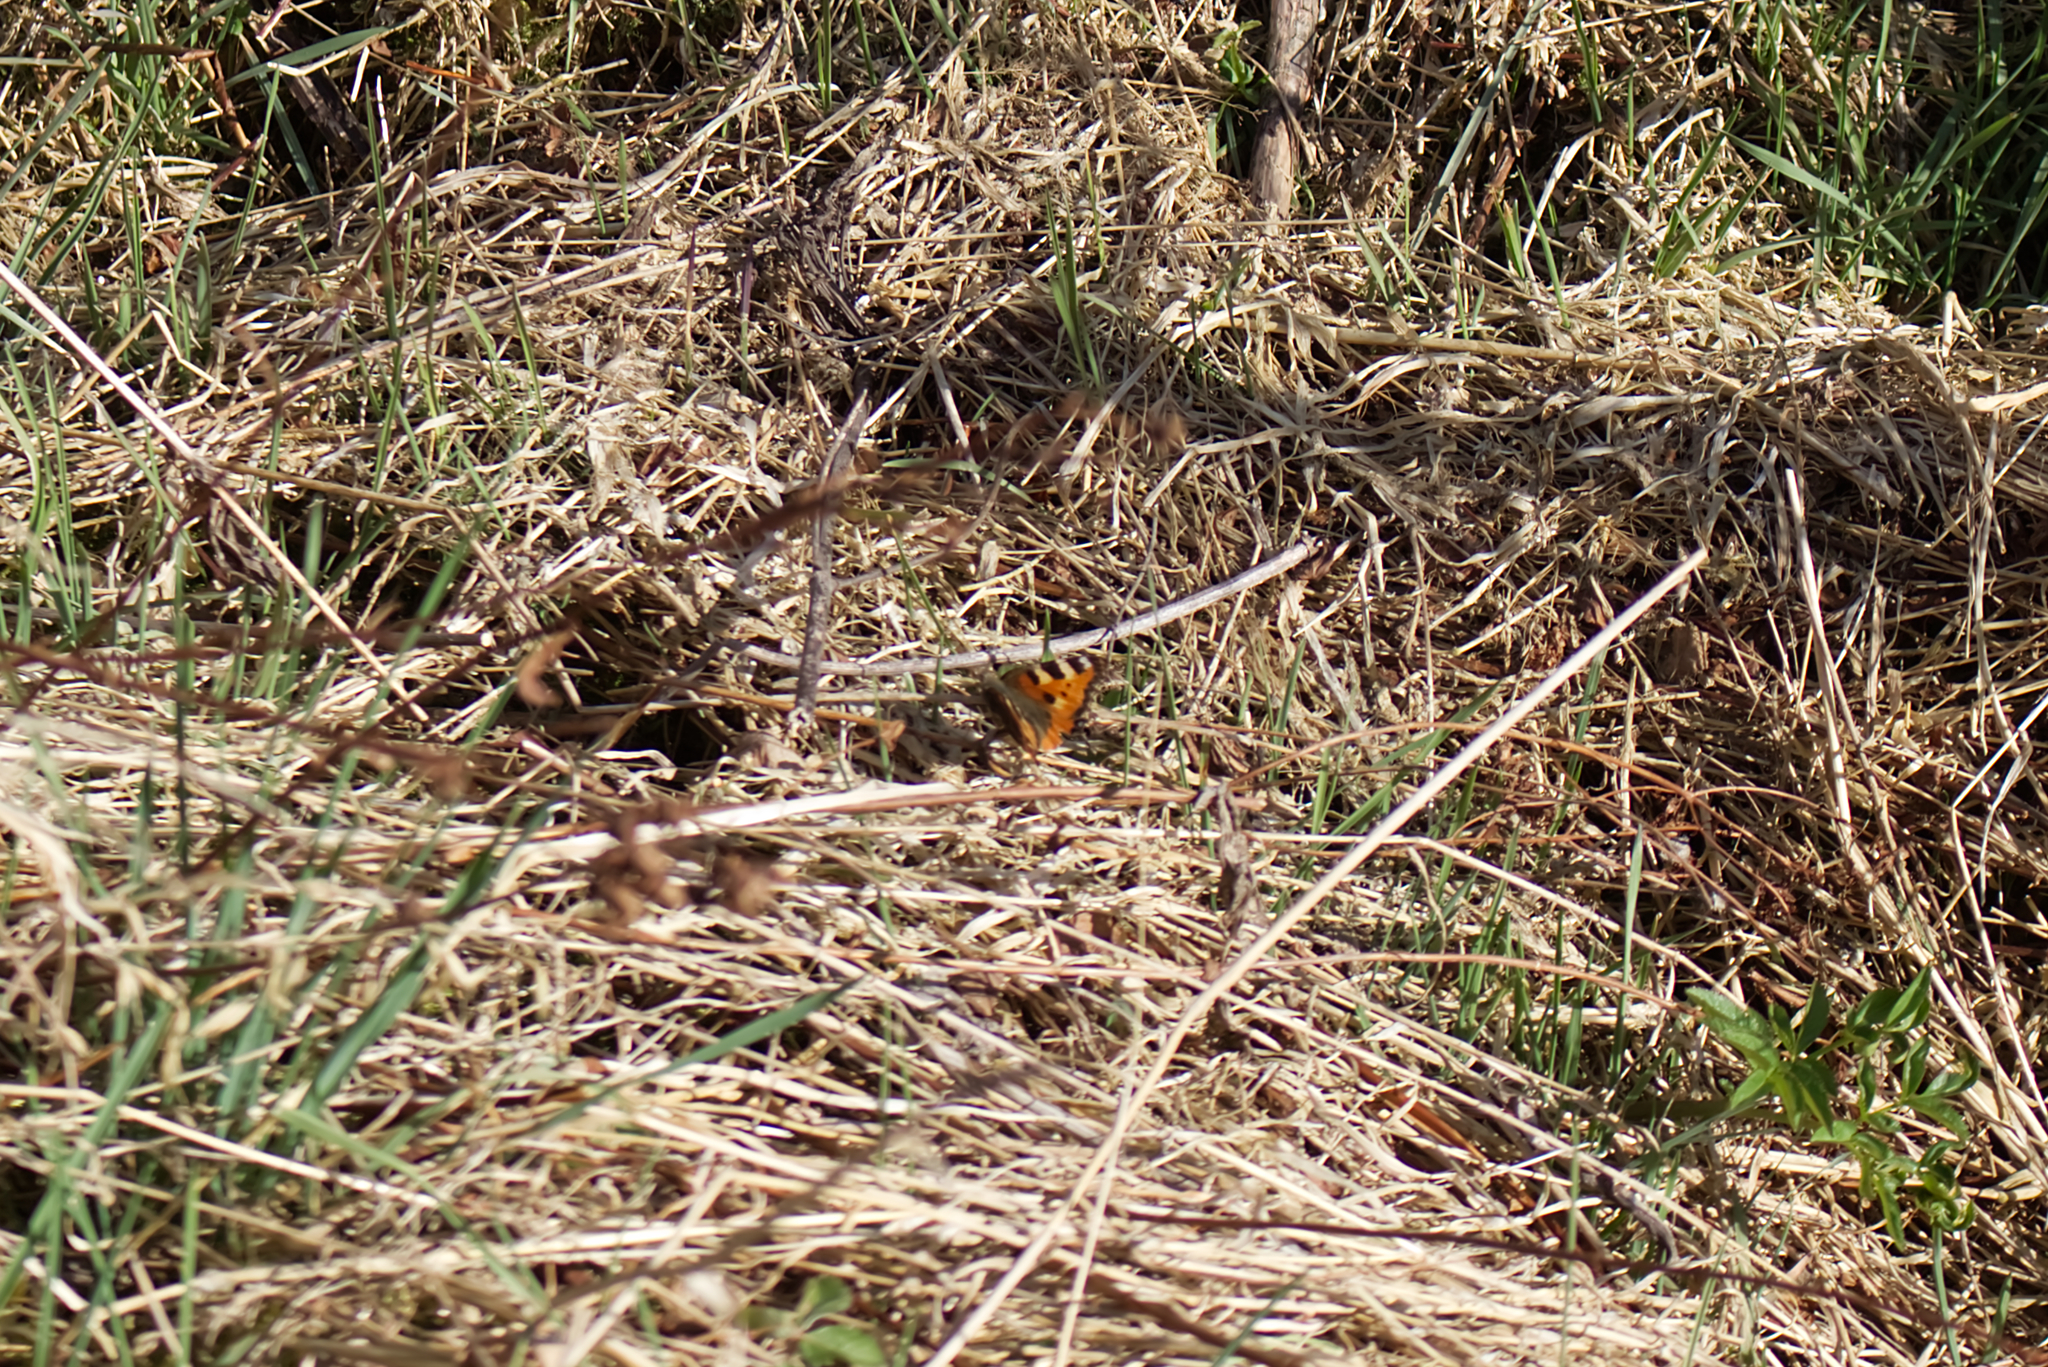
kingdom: Animalia
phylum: Arthropoda
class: Insecta
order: Lepidoptera
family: Nymphalidae
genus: Aglais
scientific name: Aglais urticae
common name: Small tortoiseshell
